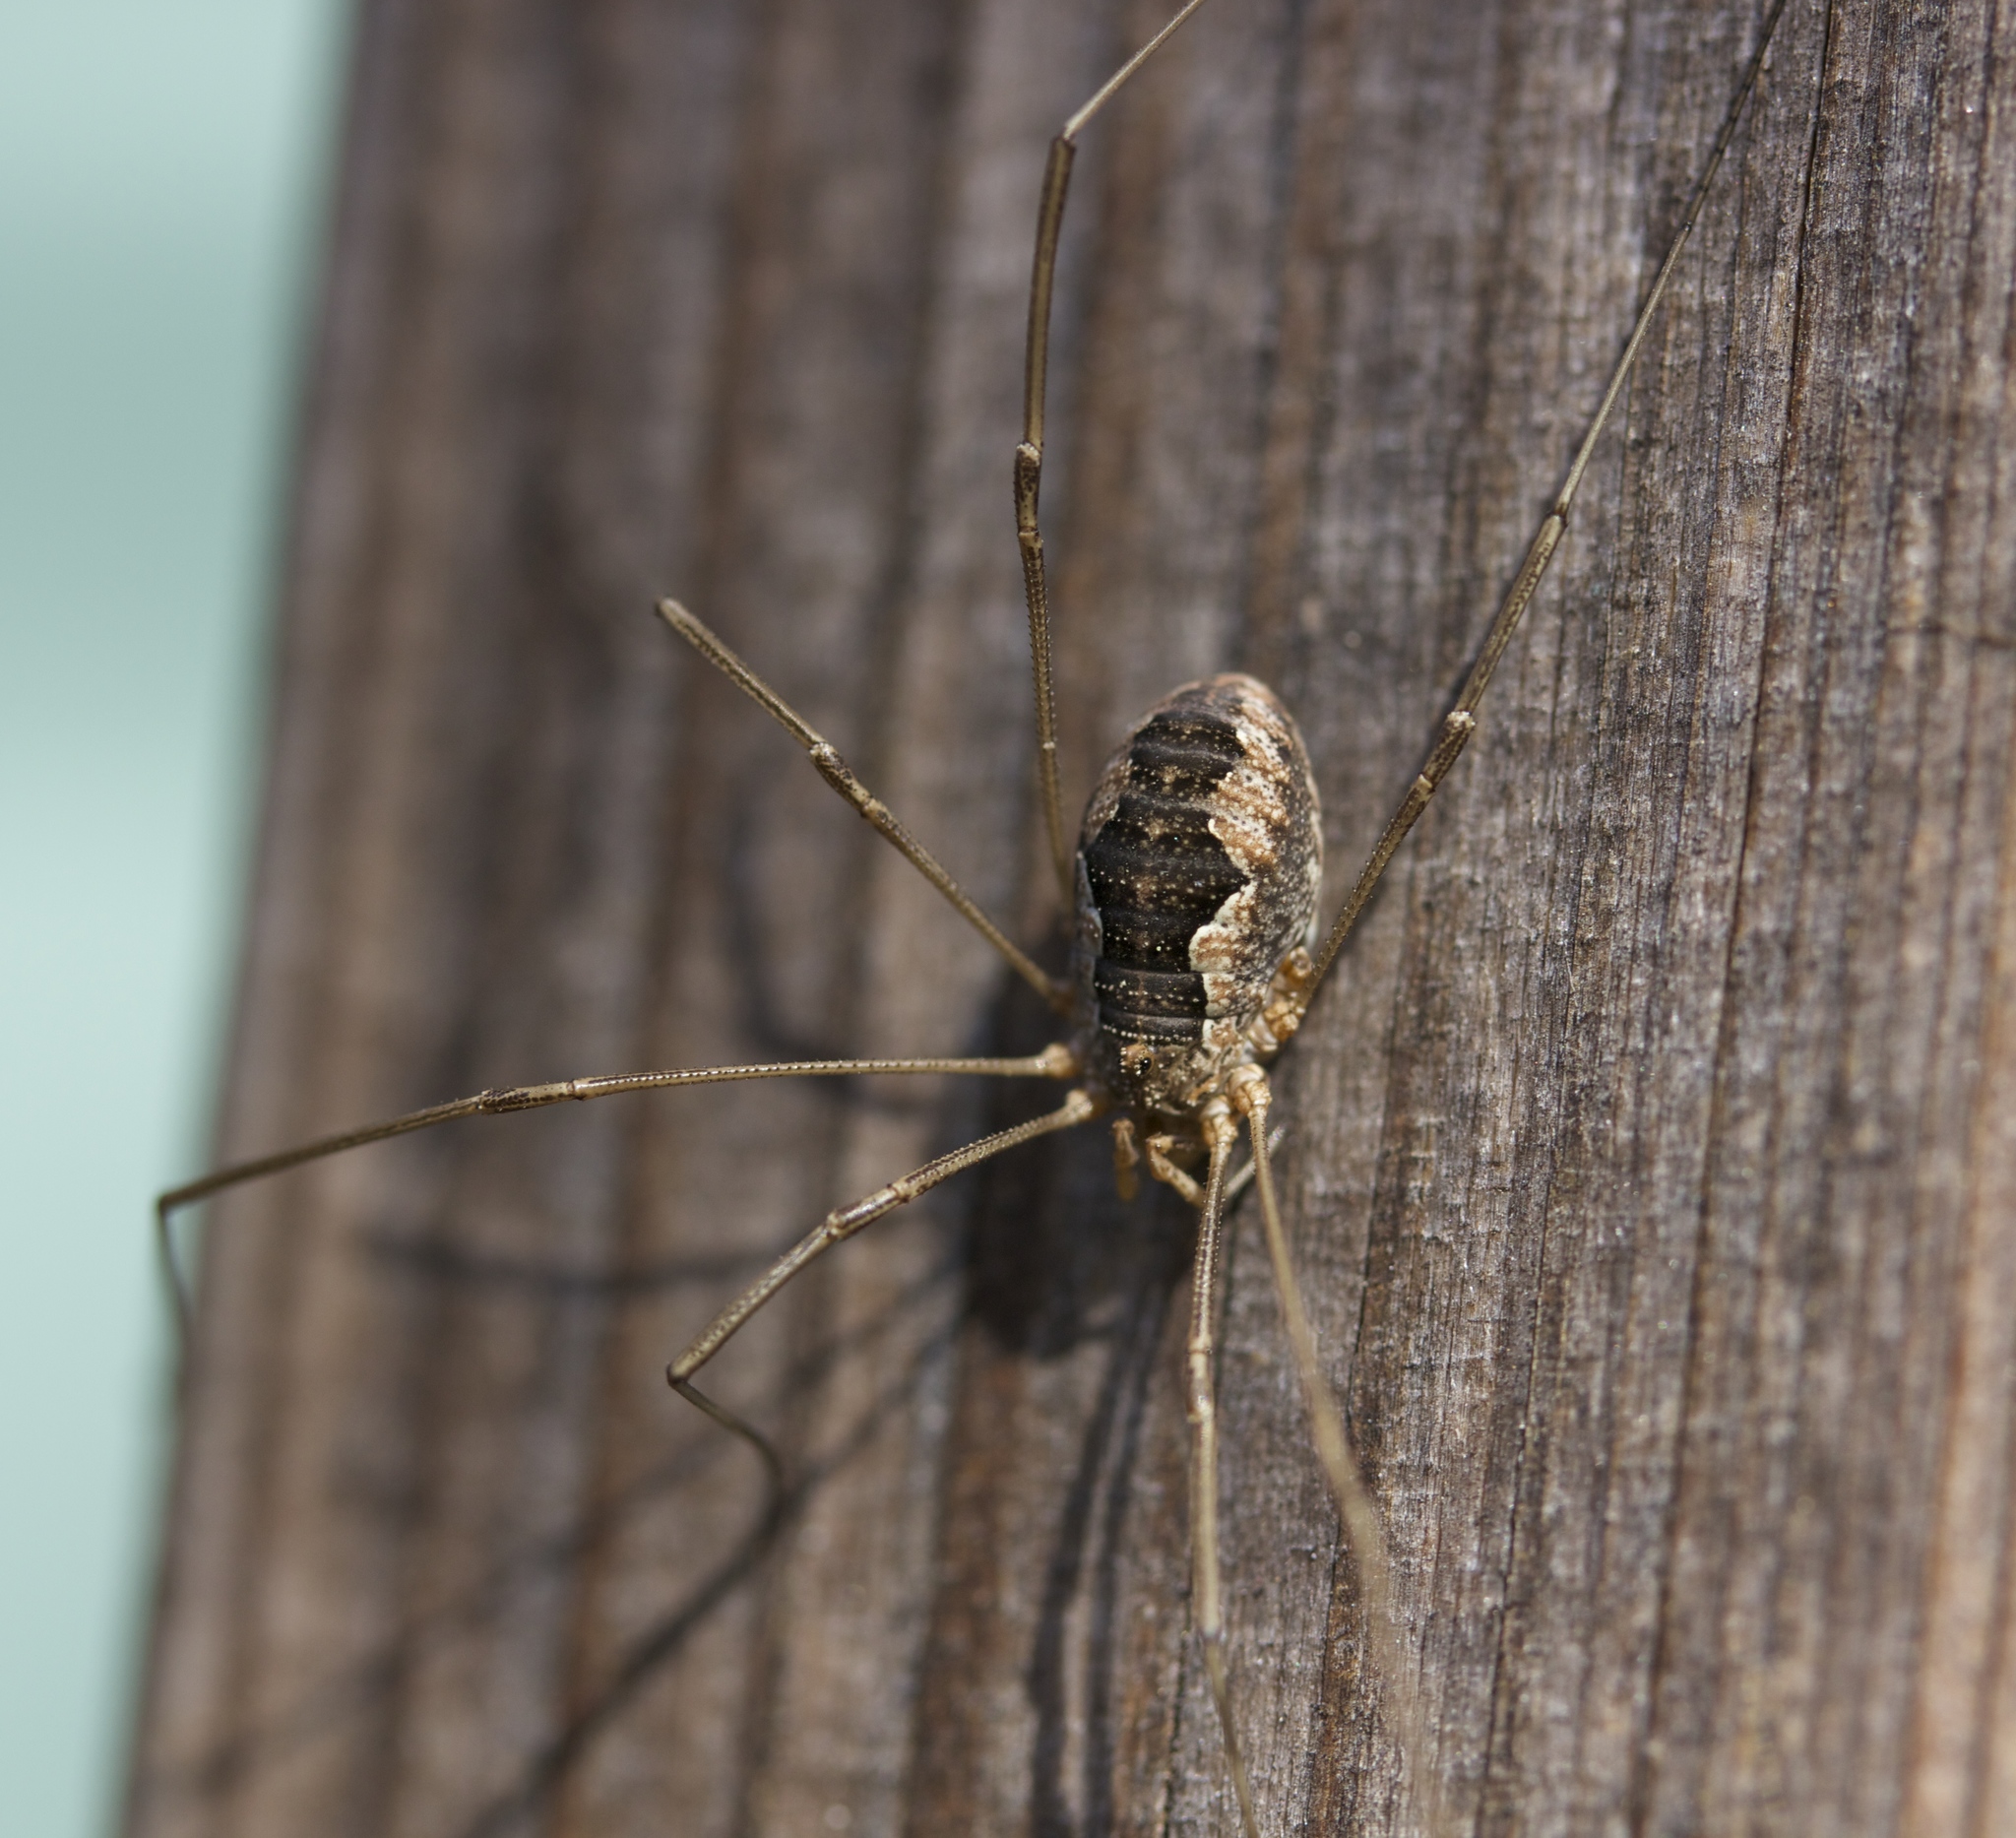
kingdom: Animalia
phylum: Arthropoda
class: Arachnida
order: Opiliones
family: Phalangiidae
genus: Phalangium
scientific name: Phalangium opilio
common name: Daddy longleg
